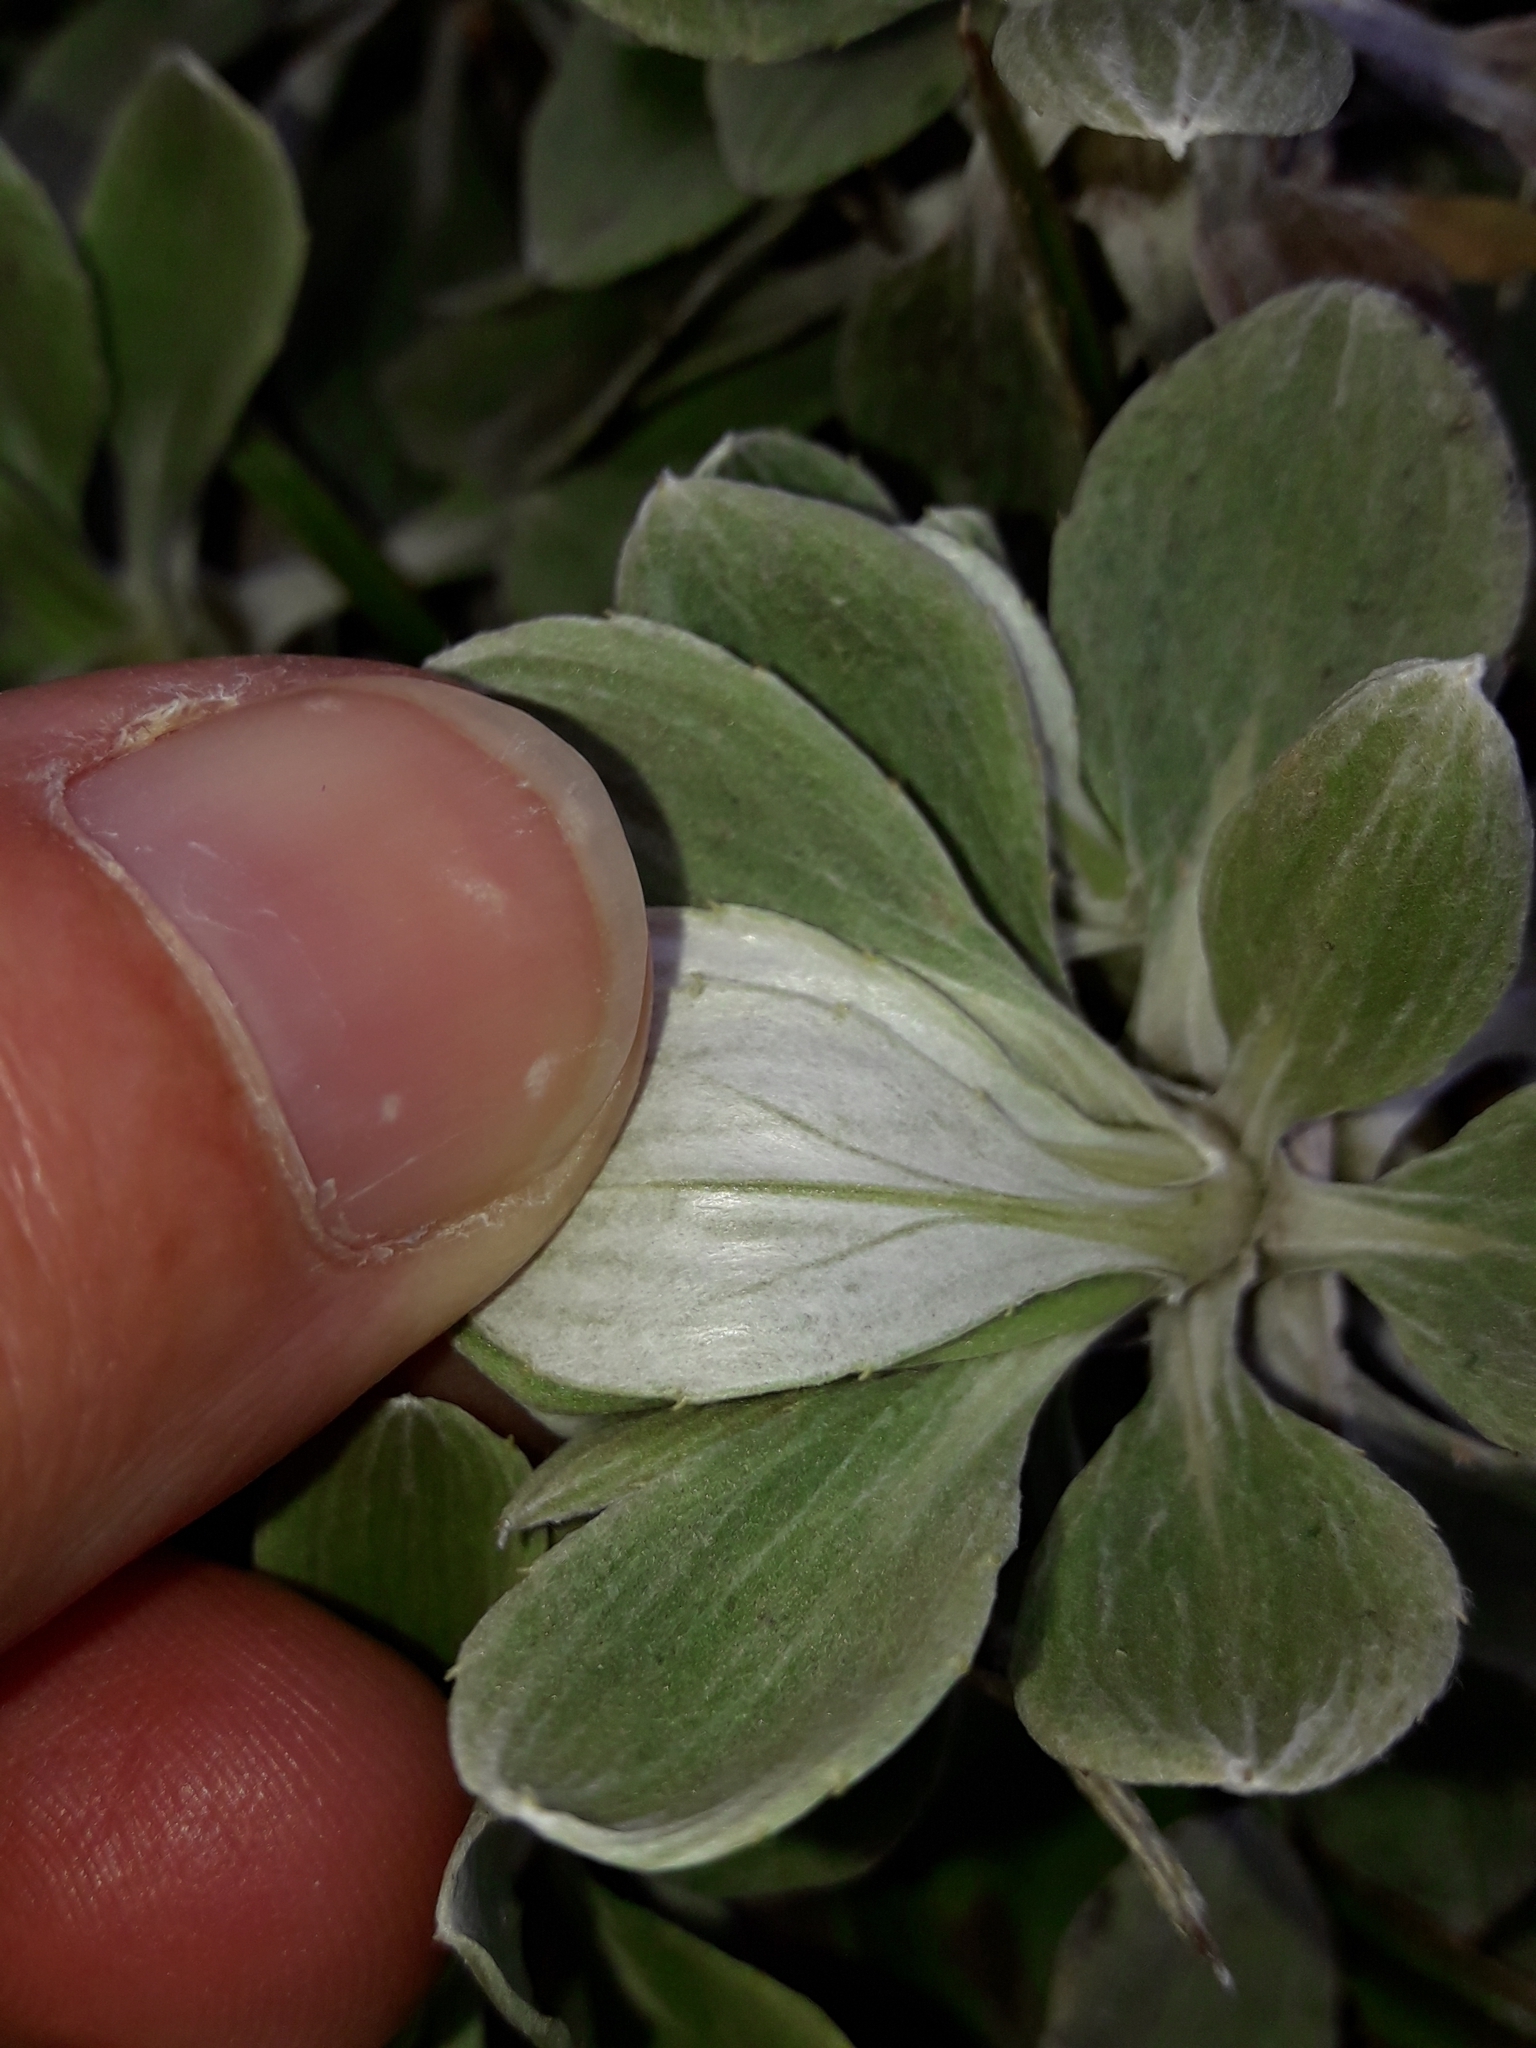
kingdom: Plantae
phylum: Tracheophyta
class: Magnoliopsida
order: Asterales
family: Asteraceae
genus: Celmisia
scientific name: Celmisia discolor
